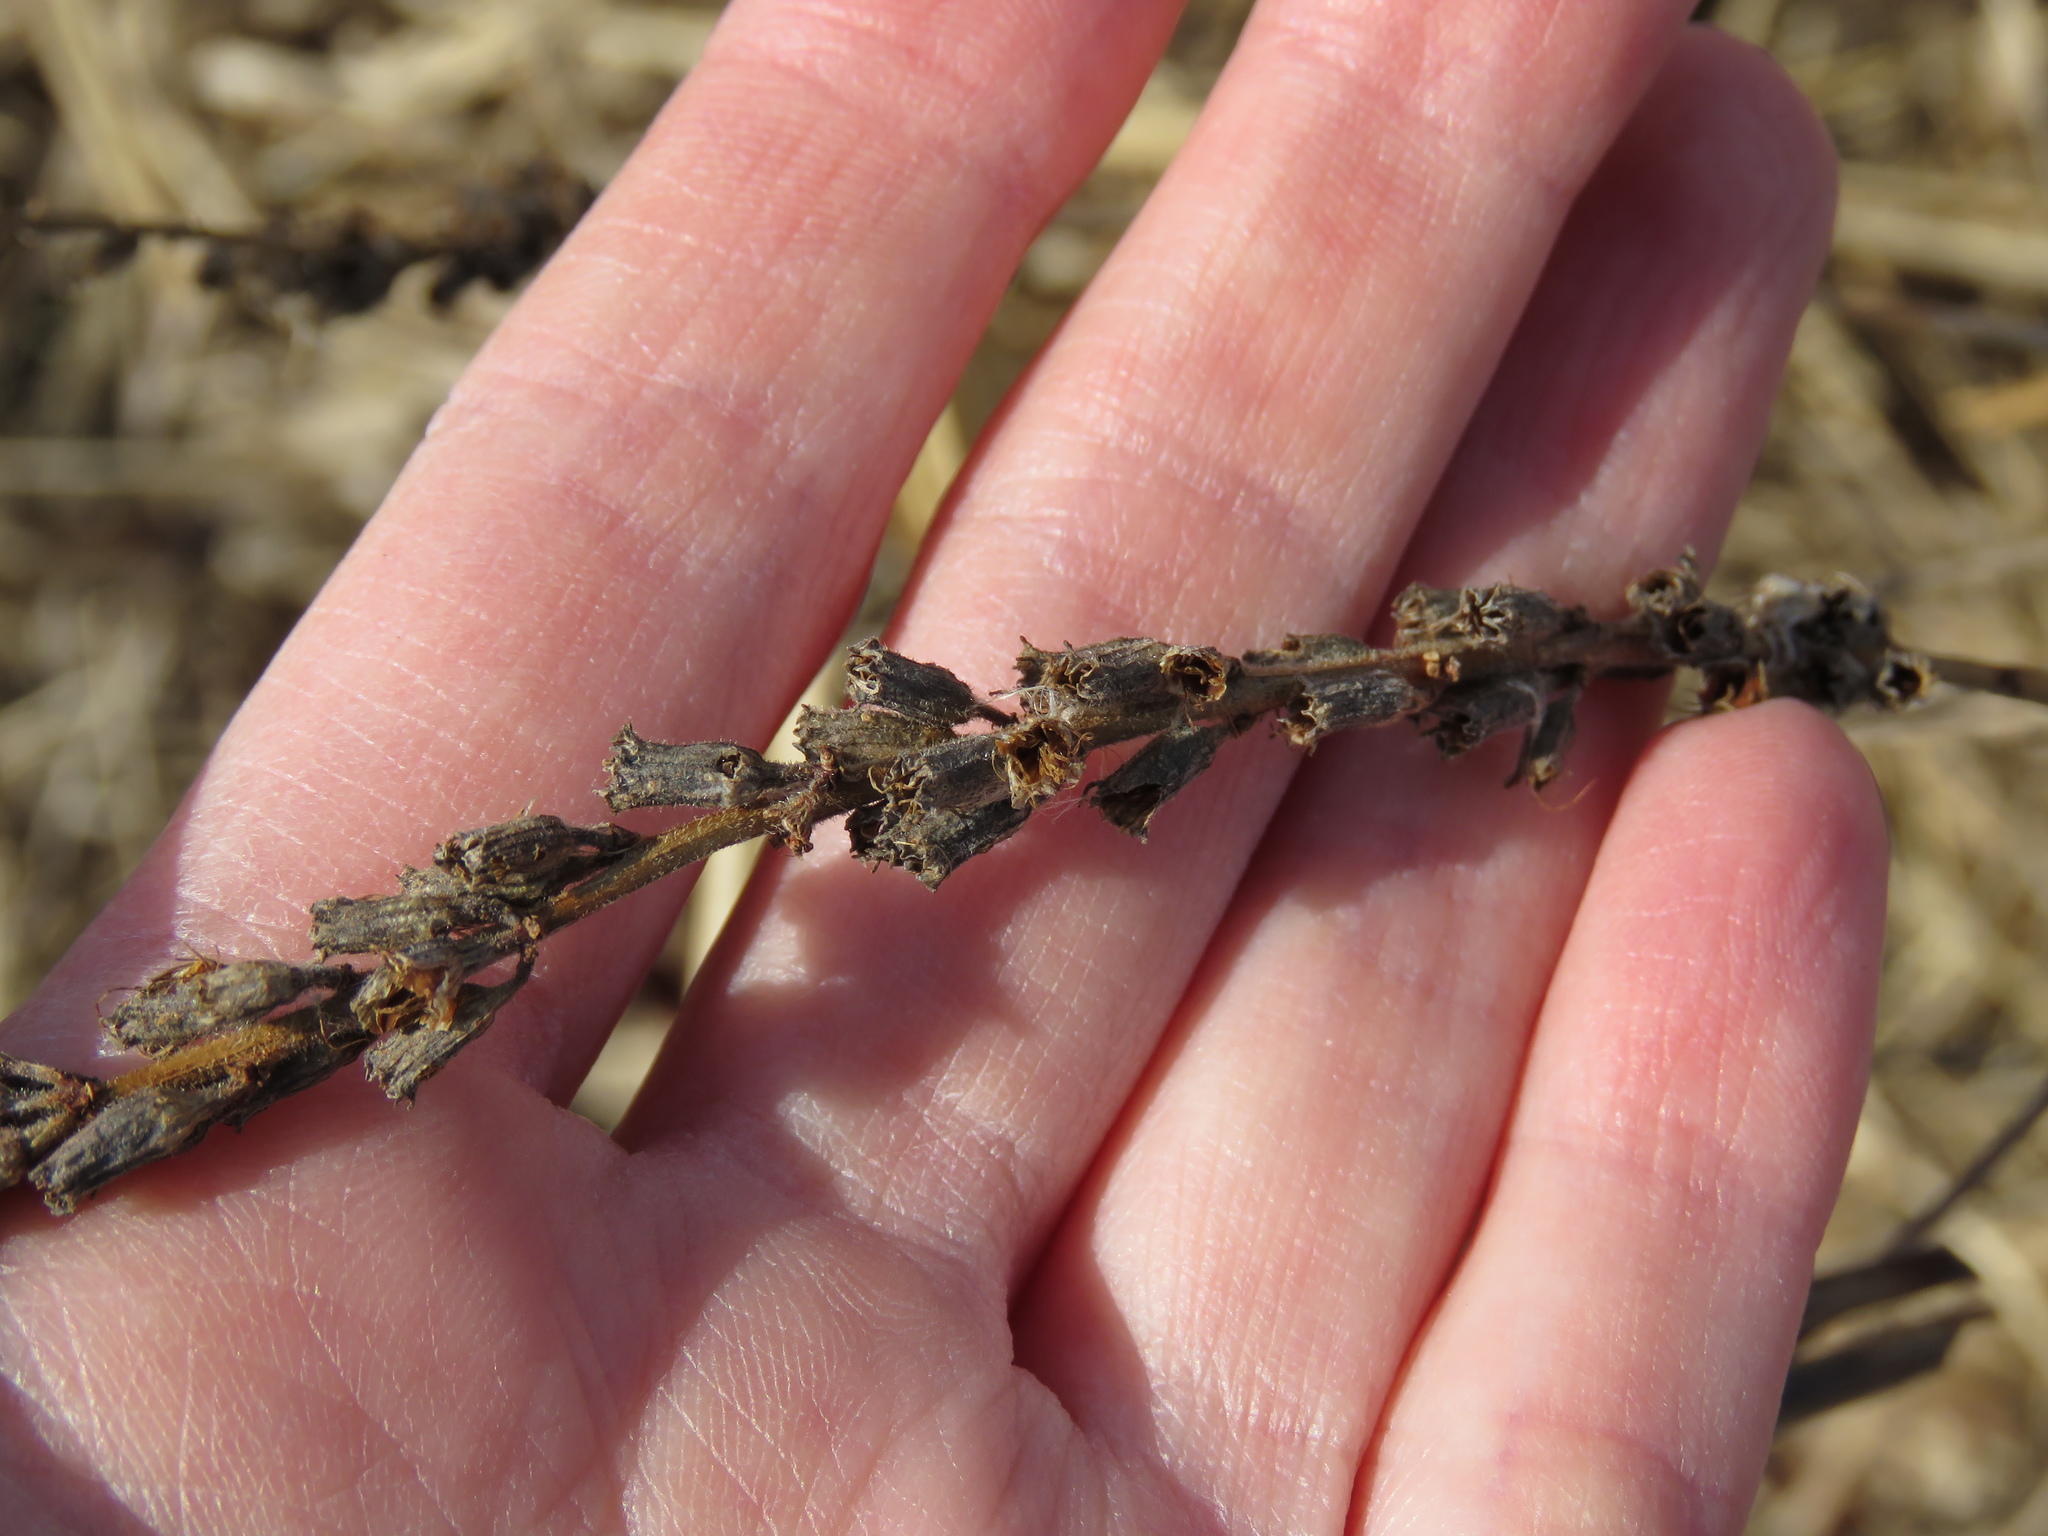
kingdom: Plantae
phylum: Tracheophyta
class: Magnoliopsida
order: Myrtales
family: Lythraceae
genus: Lythrum
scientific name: Lythrum salicaria
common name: Purple loosestrife
